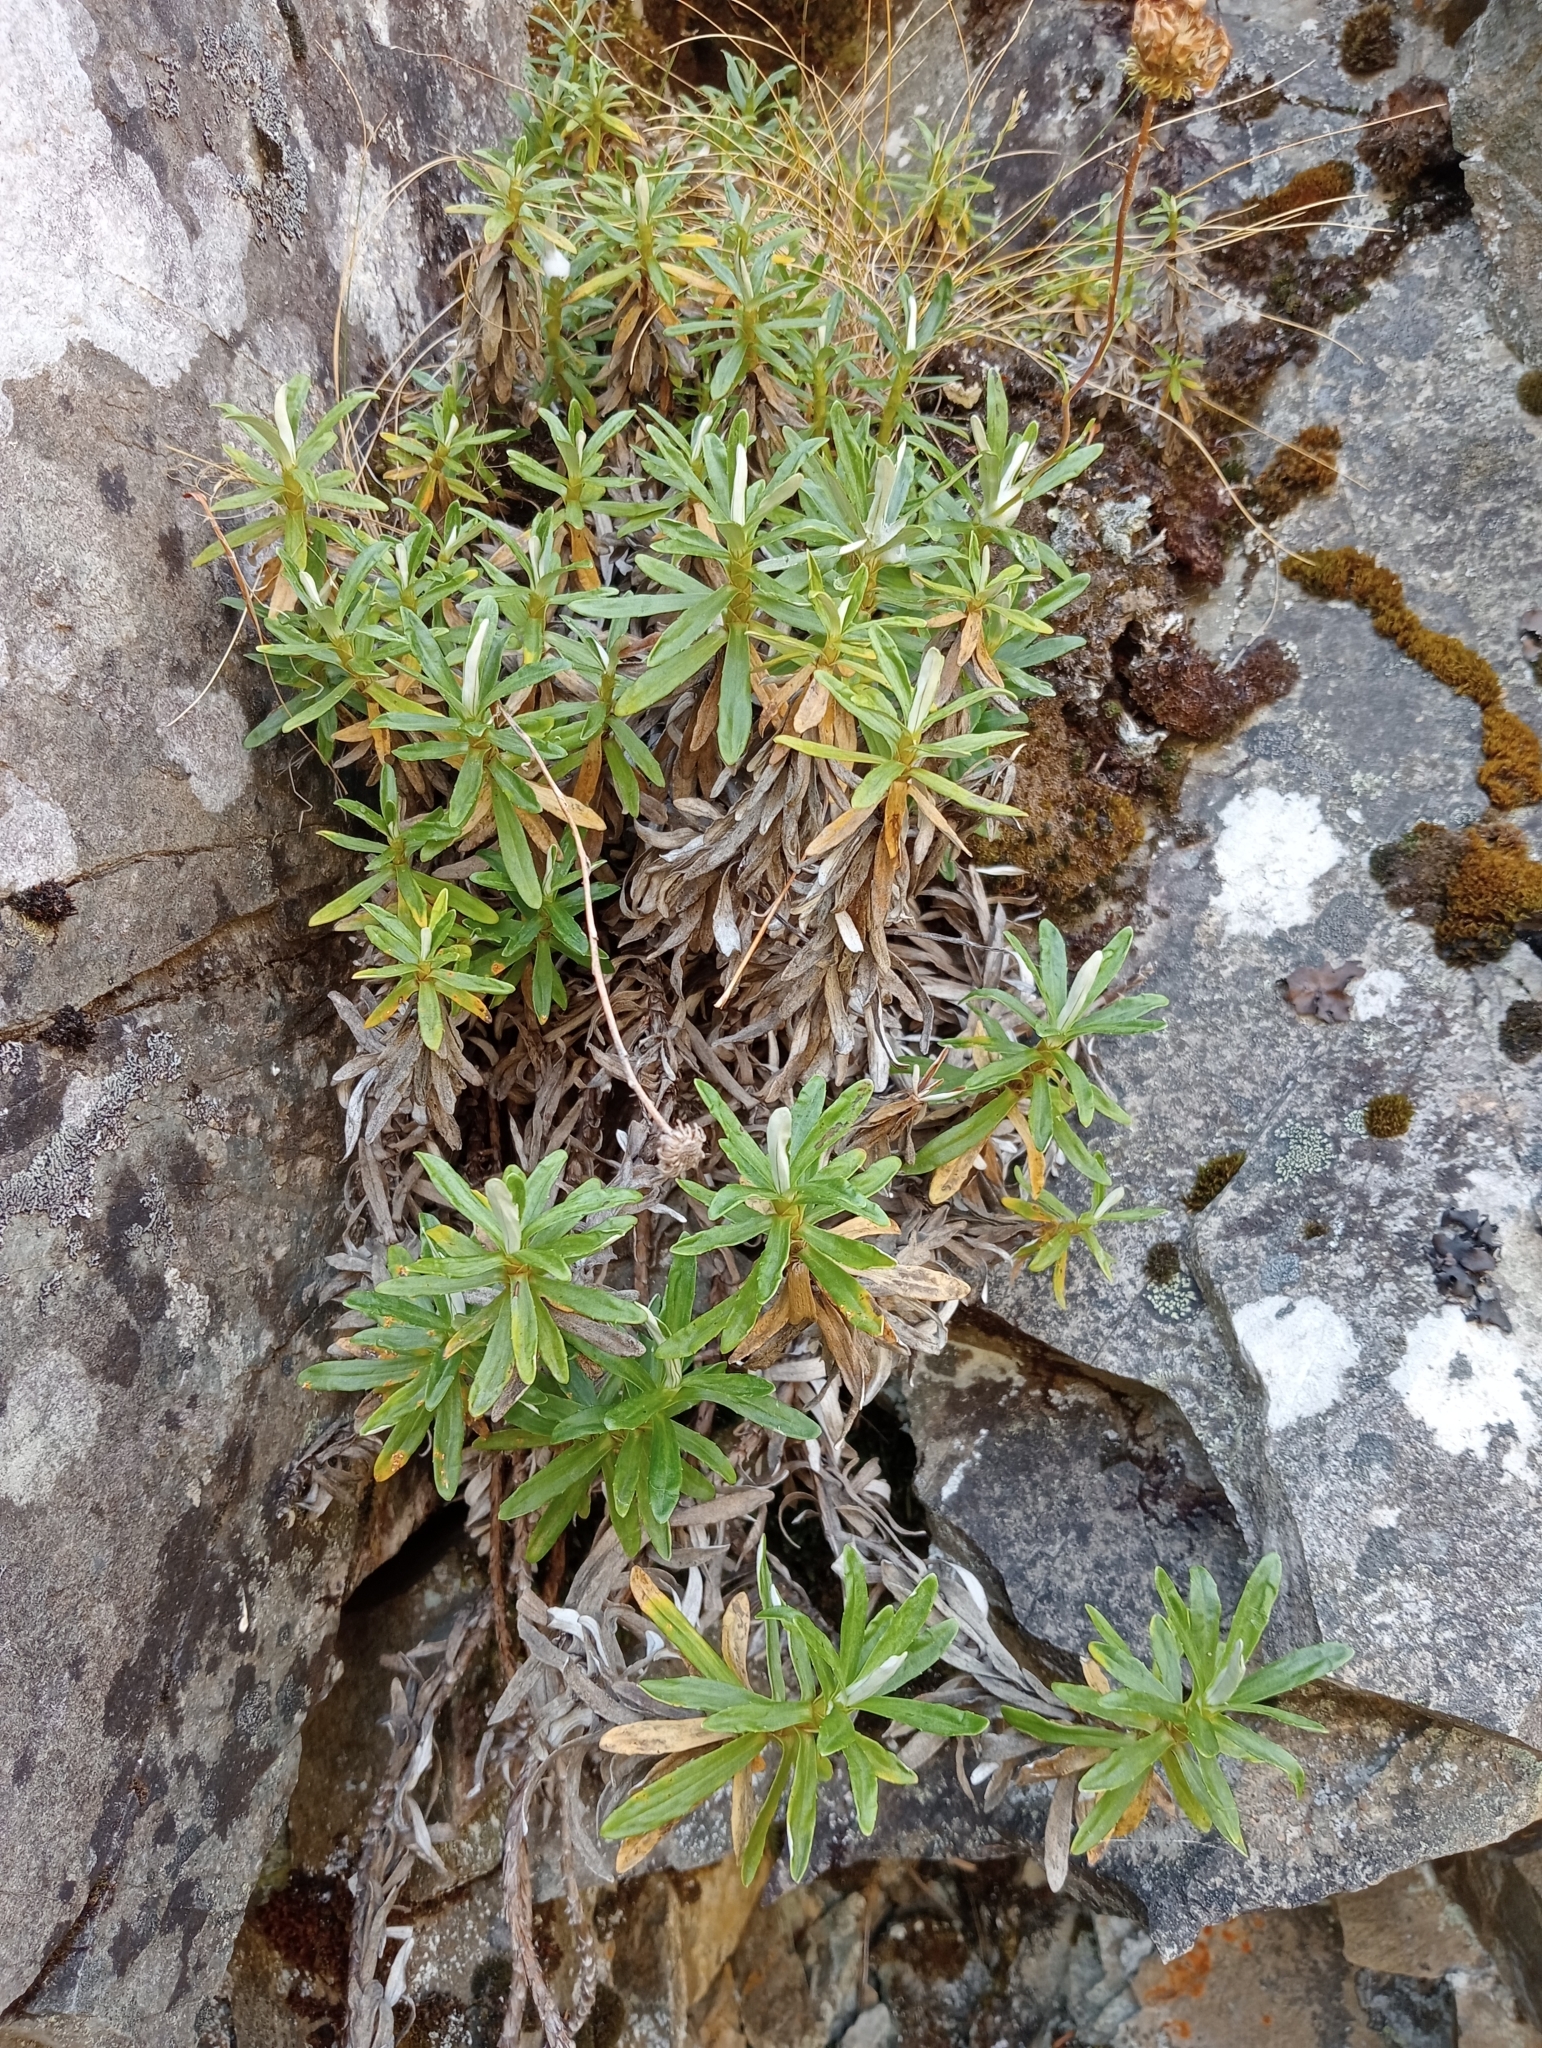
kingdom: Plantae
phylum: Tracheophyta
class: Magnoliopsida
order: Asterales
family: Asteraceae
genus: Celmisia
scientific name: Celmisia angustifolia
